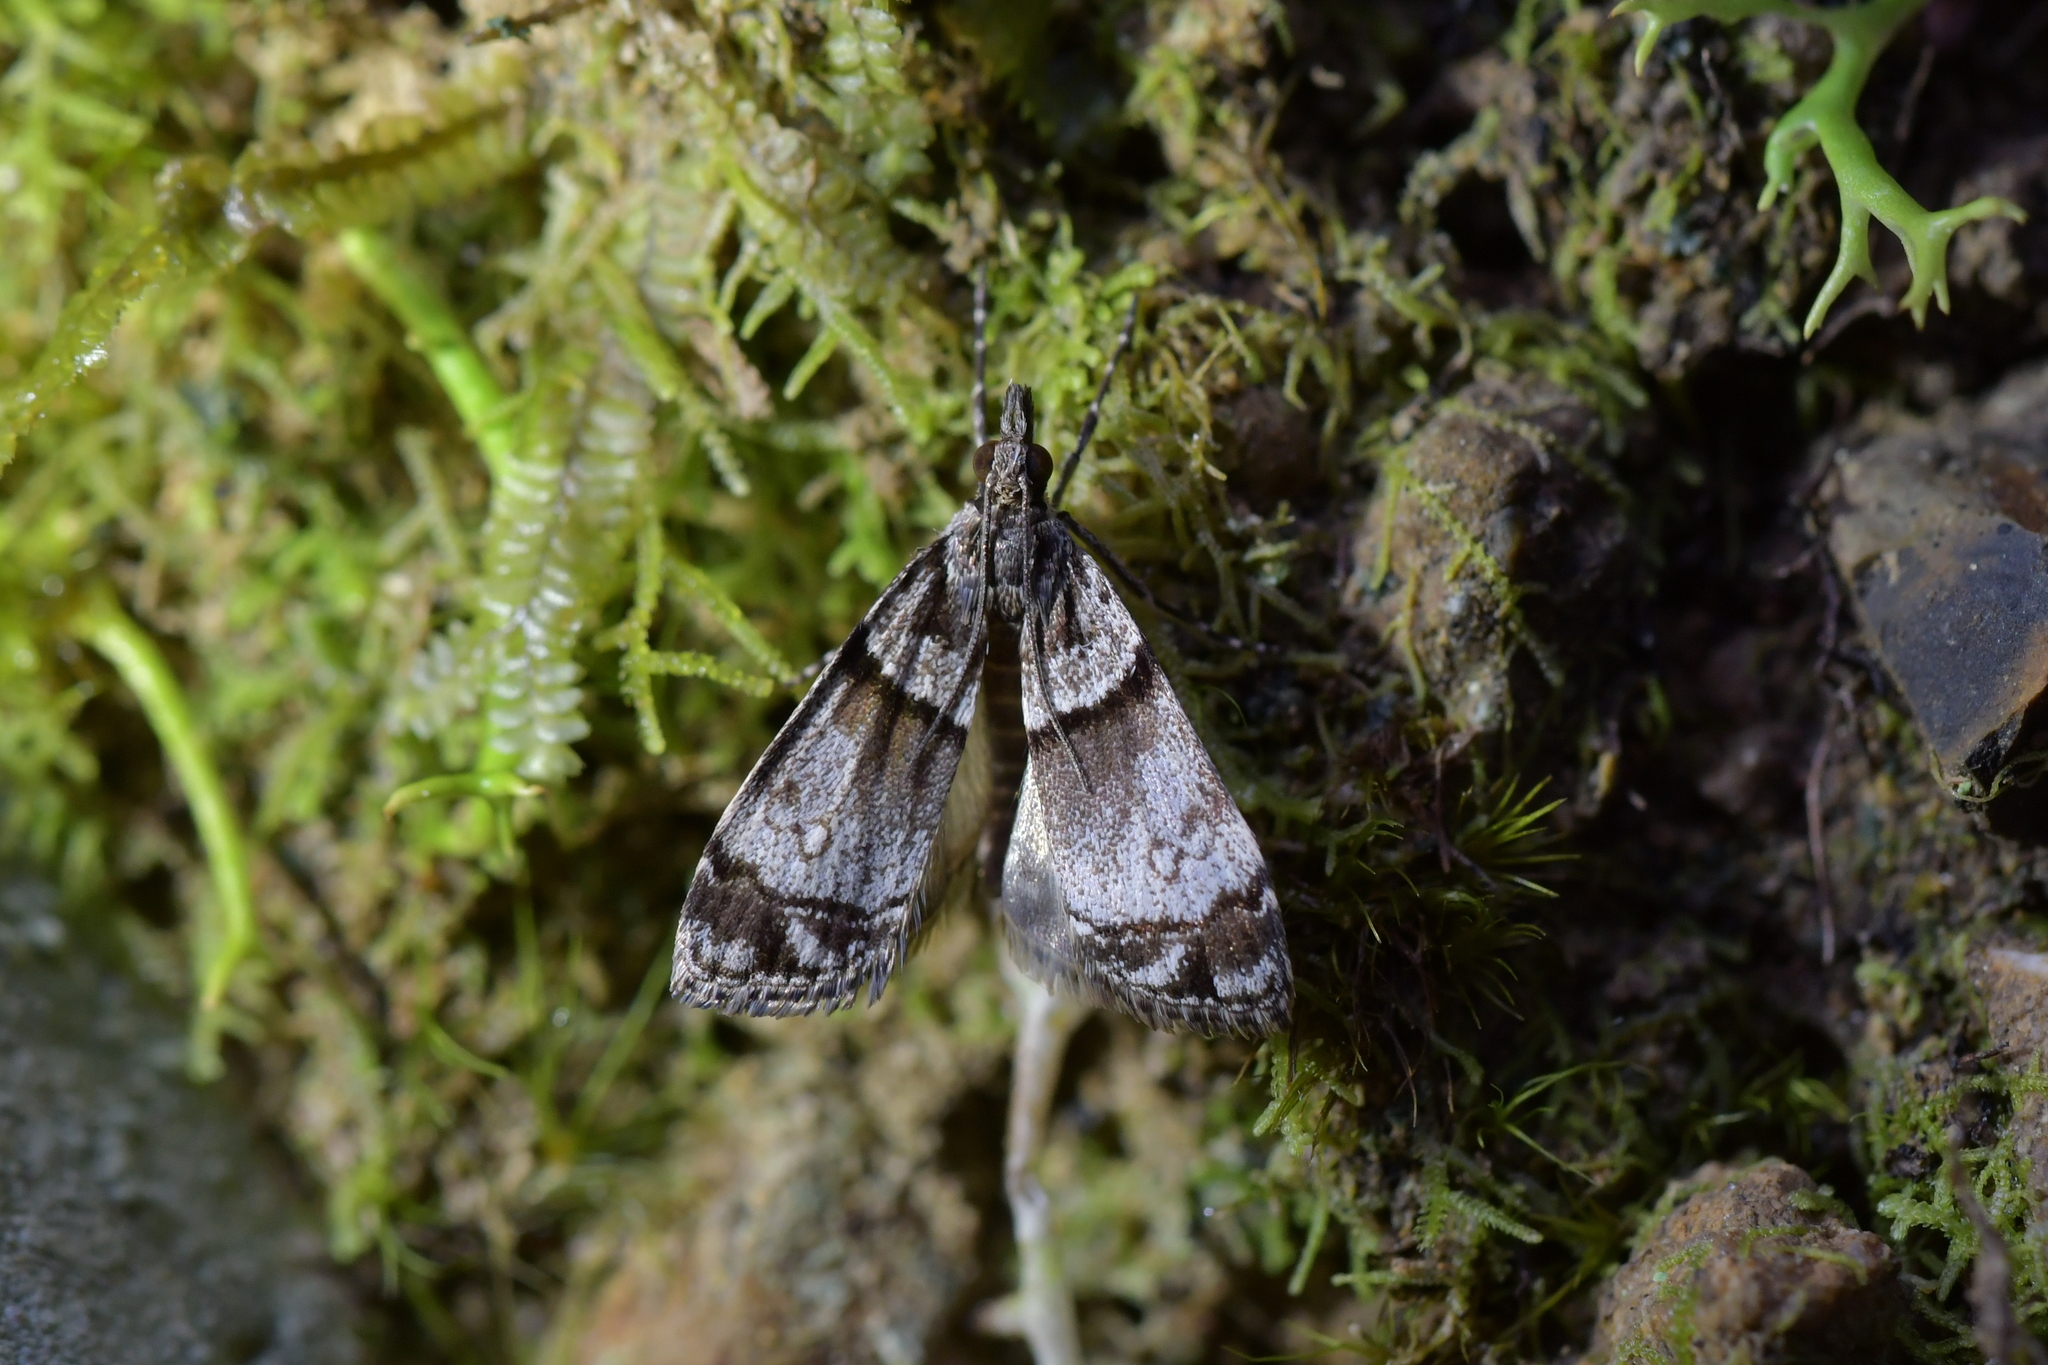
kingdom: Animalia
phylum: Arthropoda
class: Insecta
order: Lepidoptera
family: Crambidae
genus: Eudonia
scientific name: Eudonia choristis
